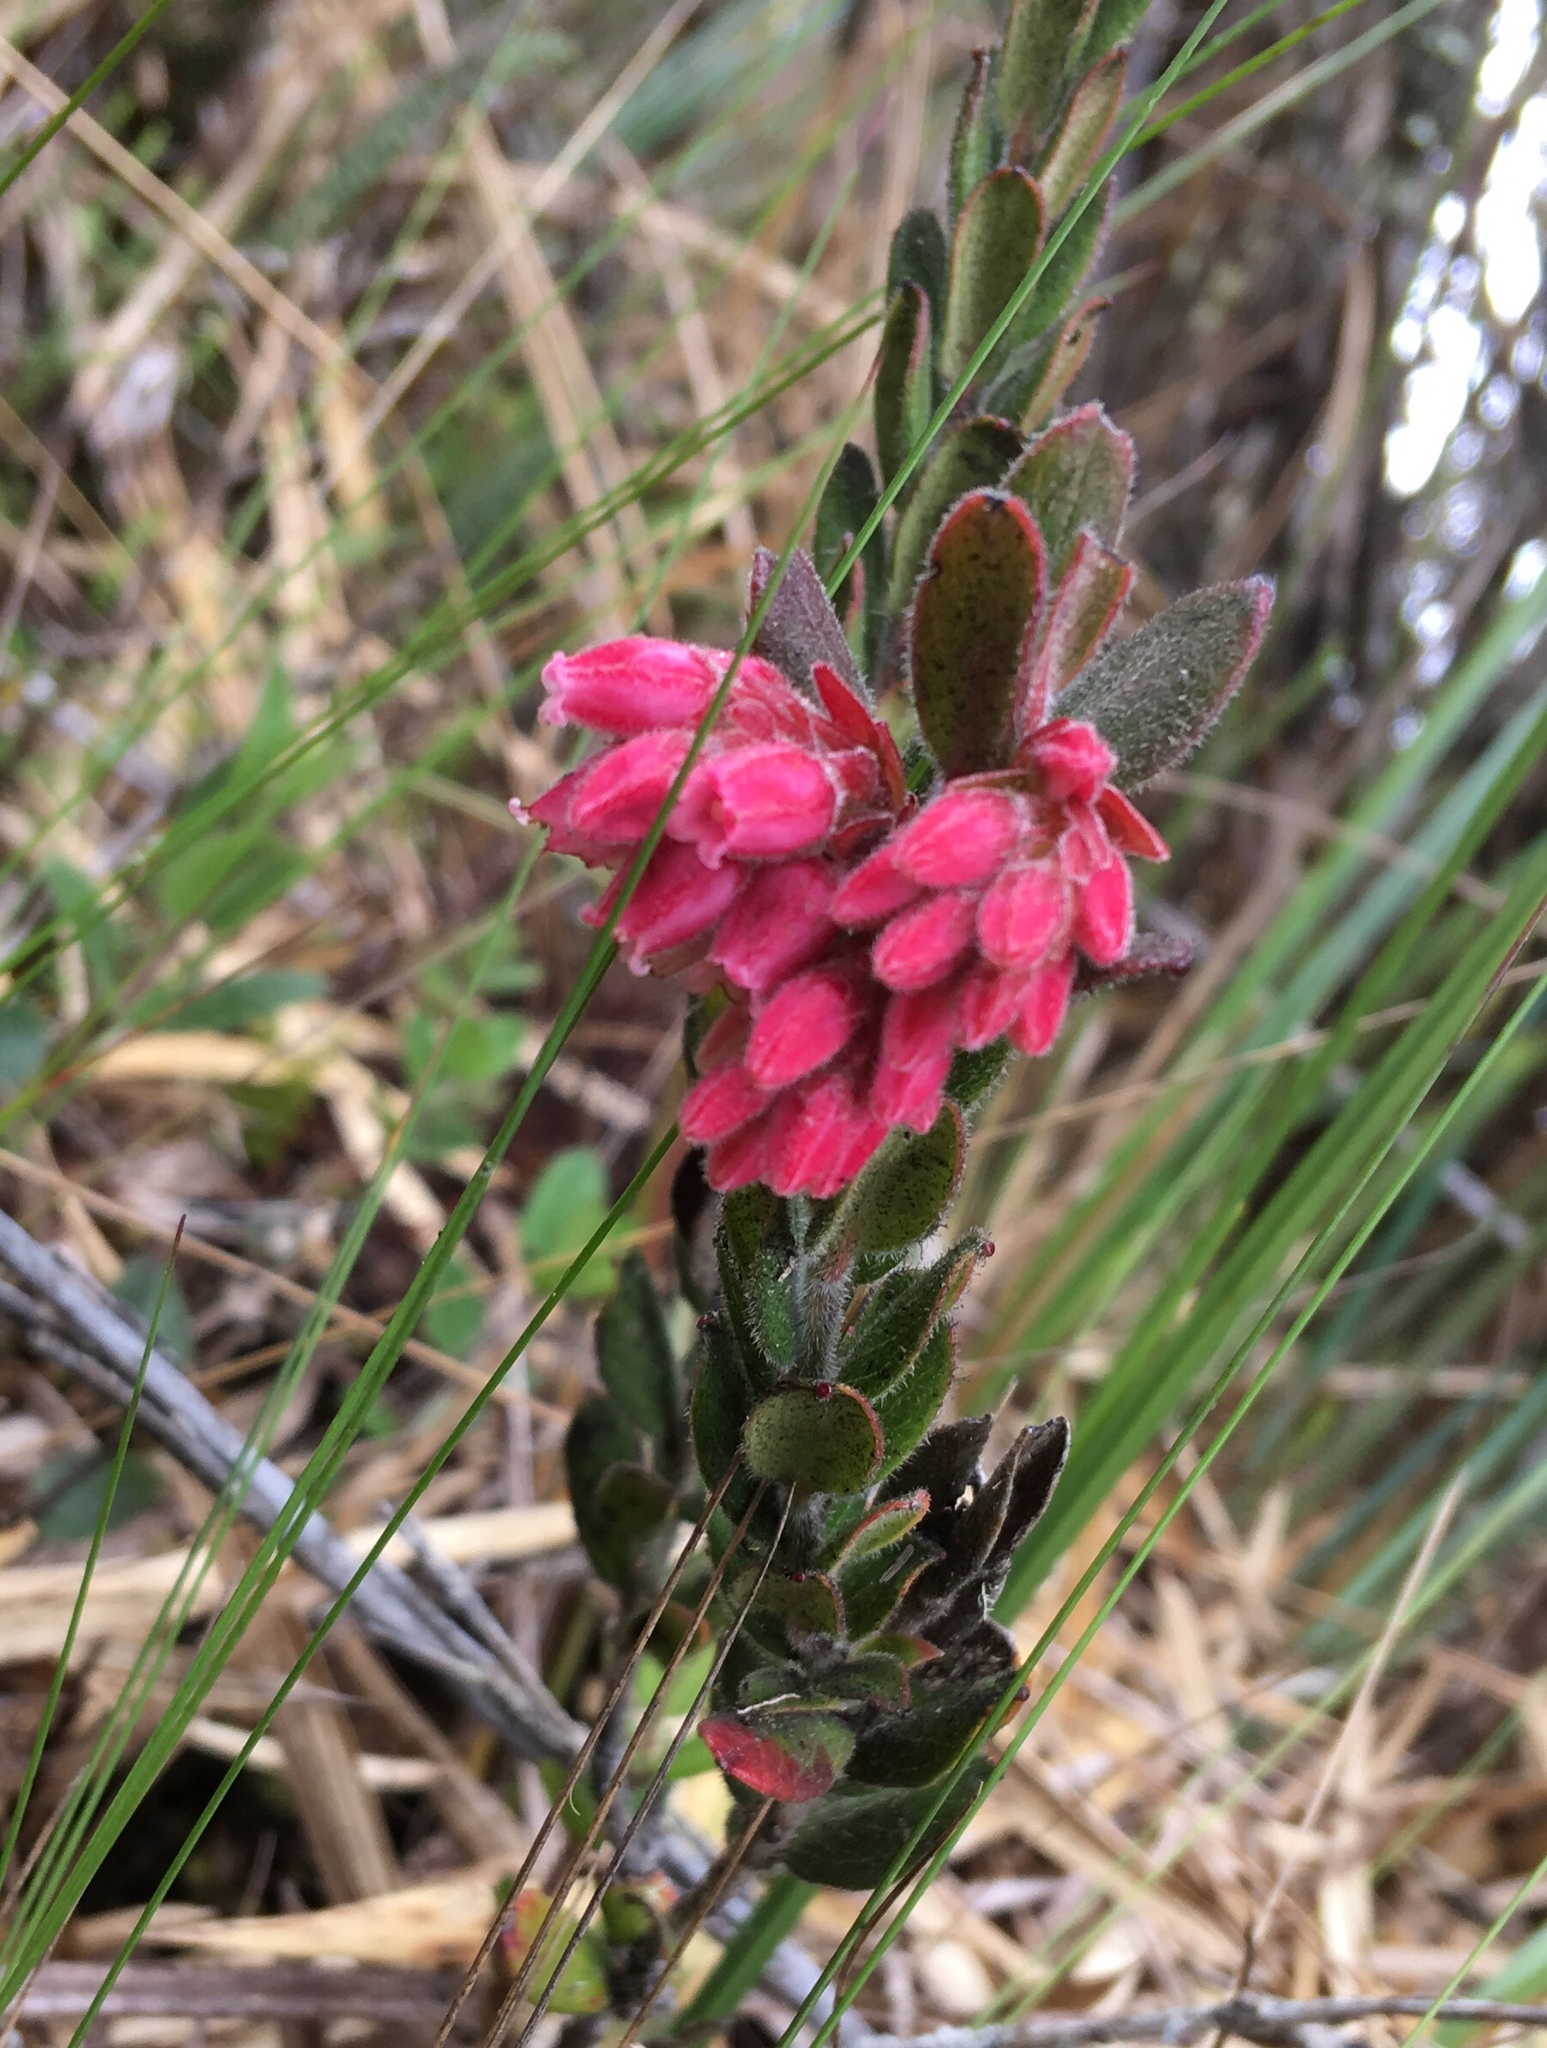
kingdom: Plantae
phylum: Tracheophyta
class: Magnoliopsida
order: Ericales
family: Ericaceae
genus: Gaylussacia
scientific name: Gaylussacia buxifolia
